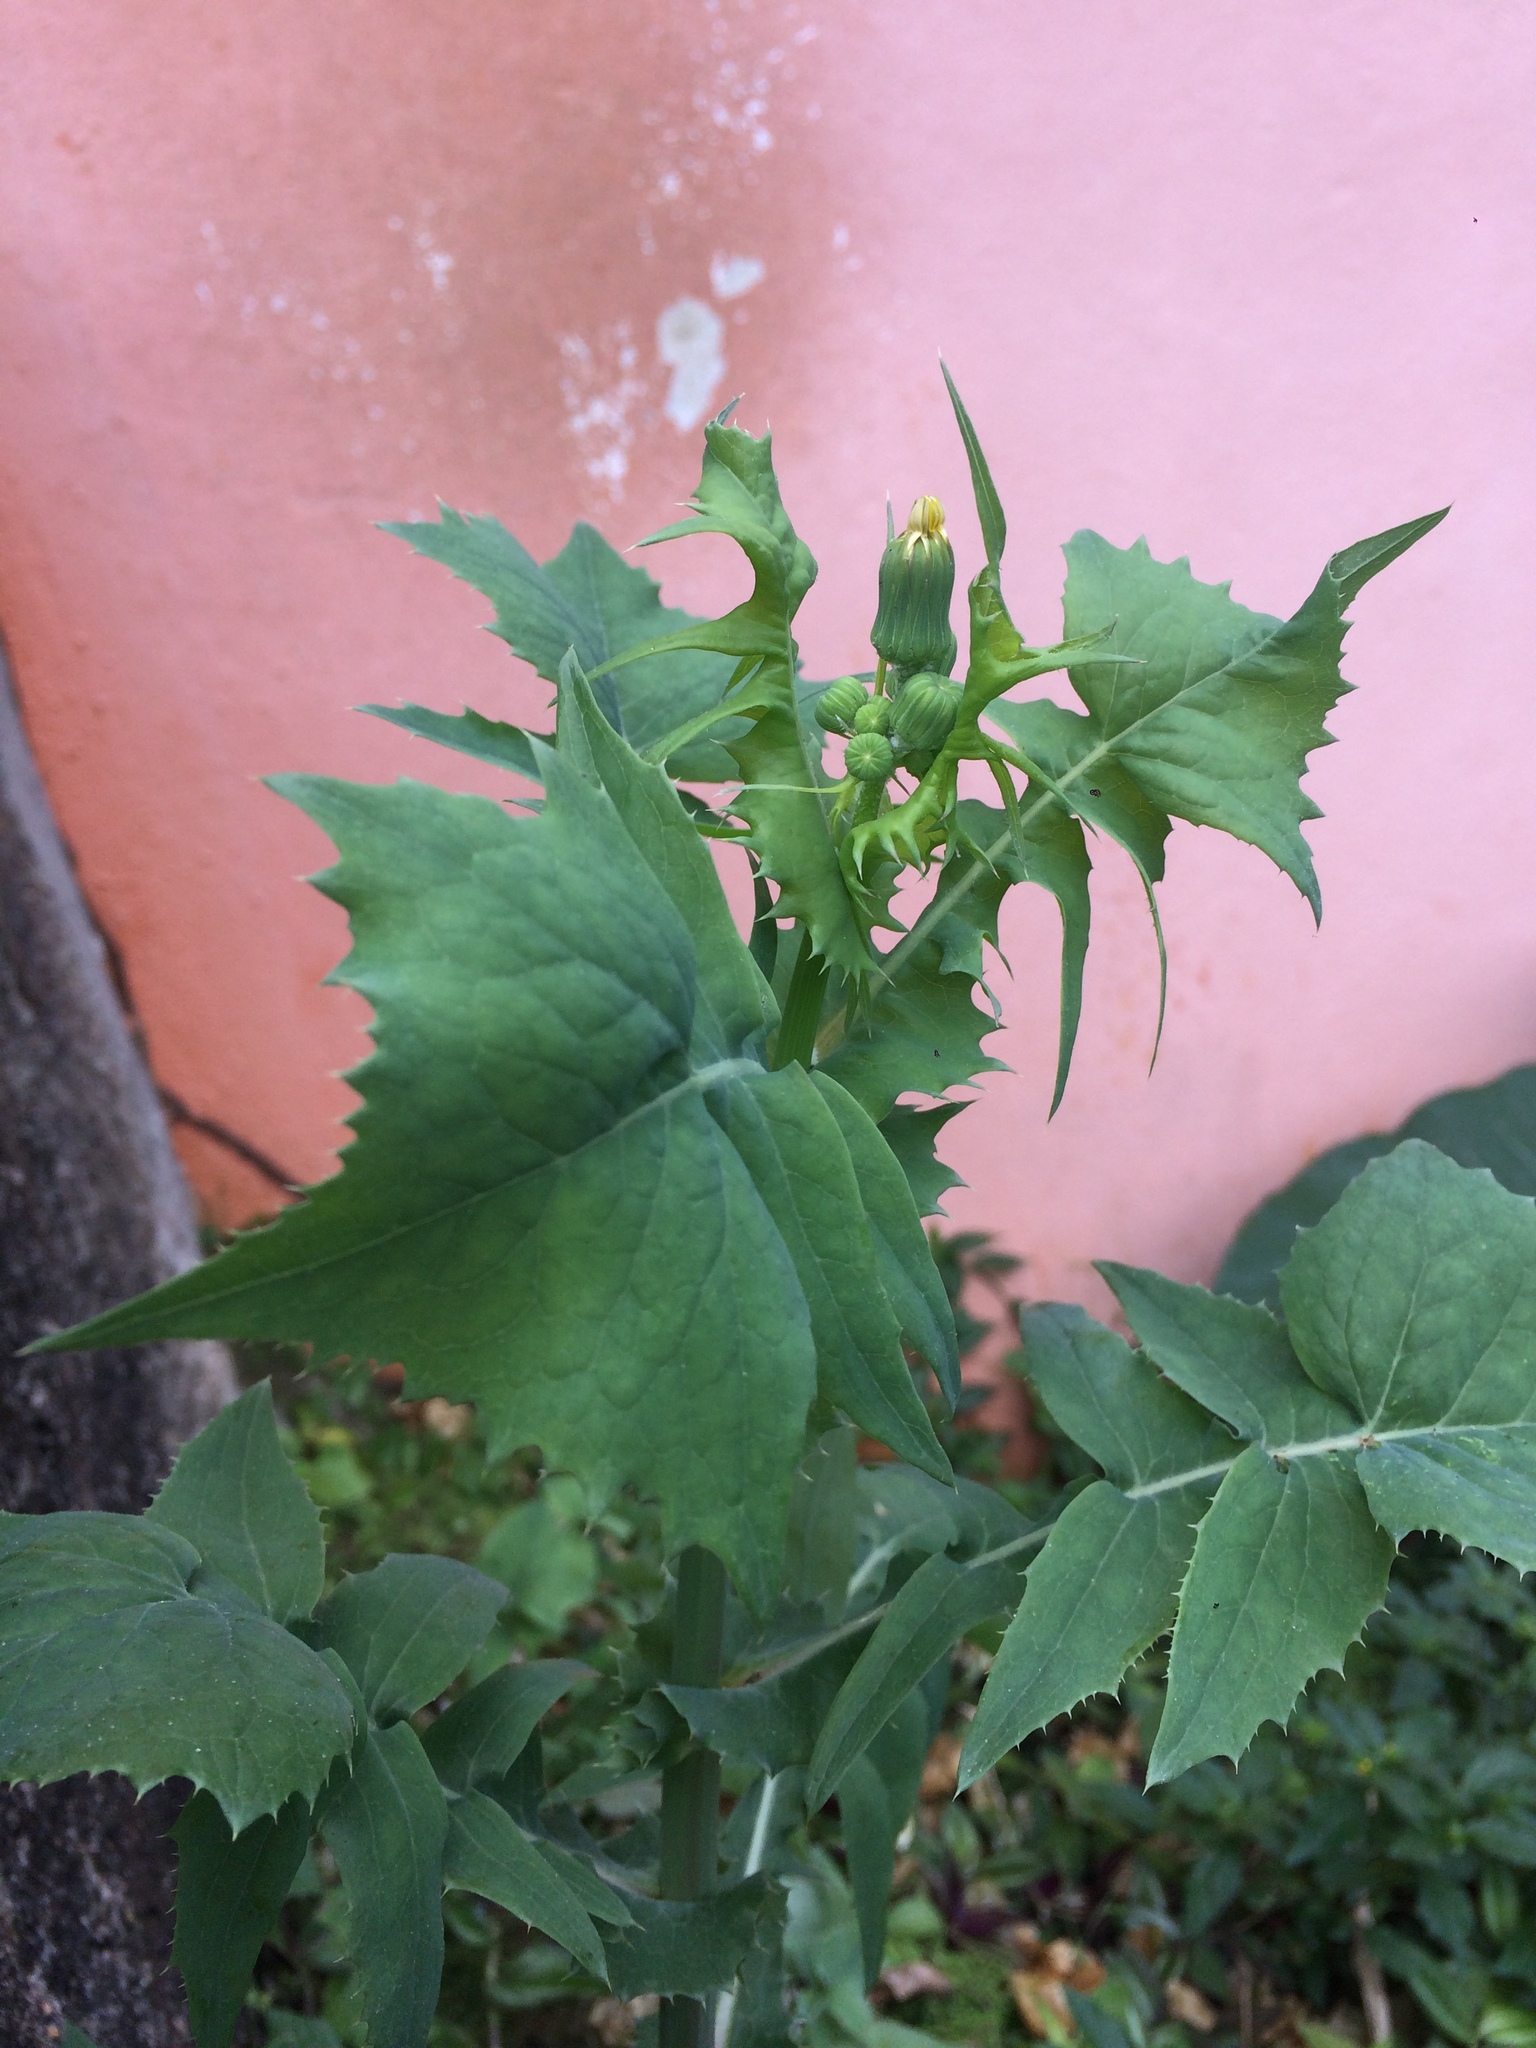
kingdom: Plantae
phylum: Tracheophyta
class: Magnoliopsida
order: Asterales
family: Asteraceae
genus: Sonchus
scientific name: Sonchus oleraceus
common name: Common sowthistle
